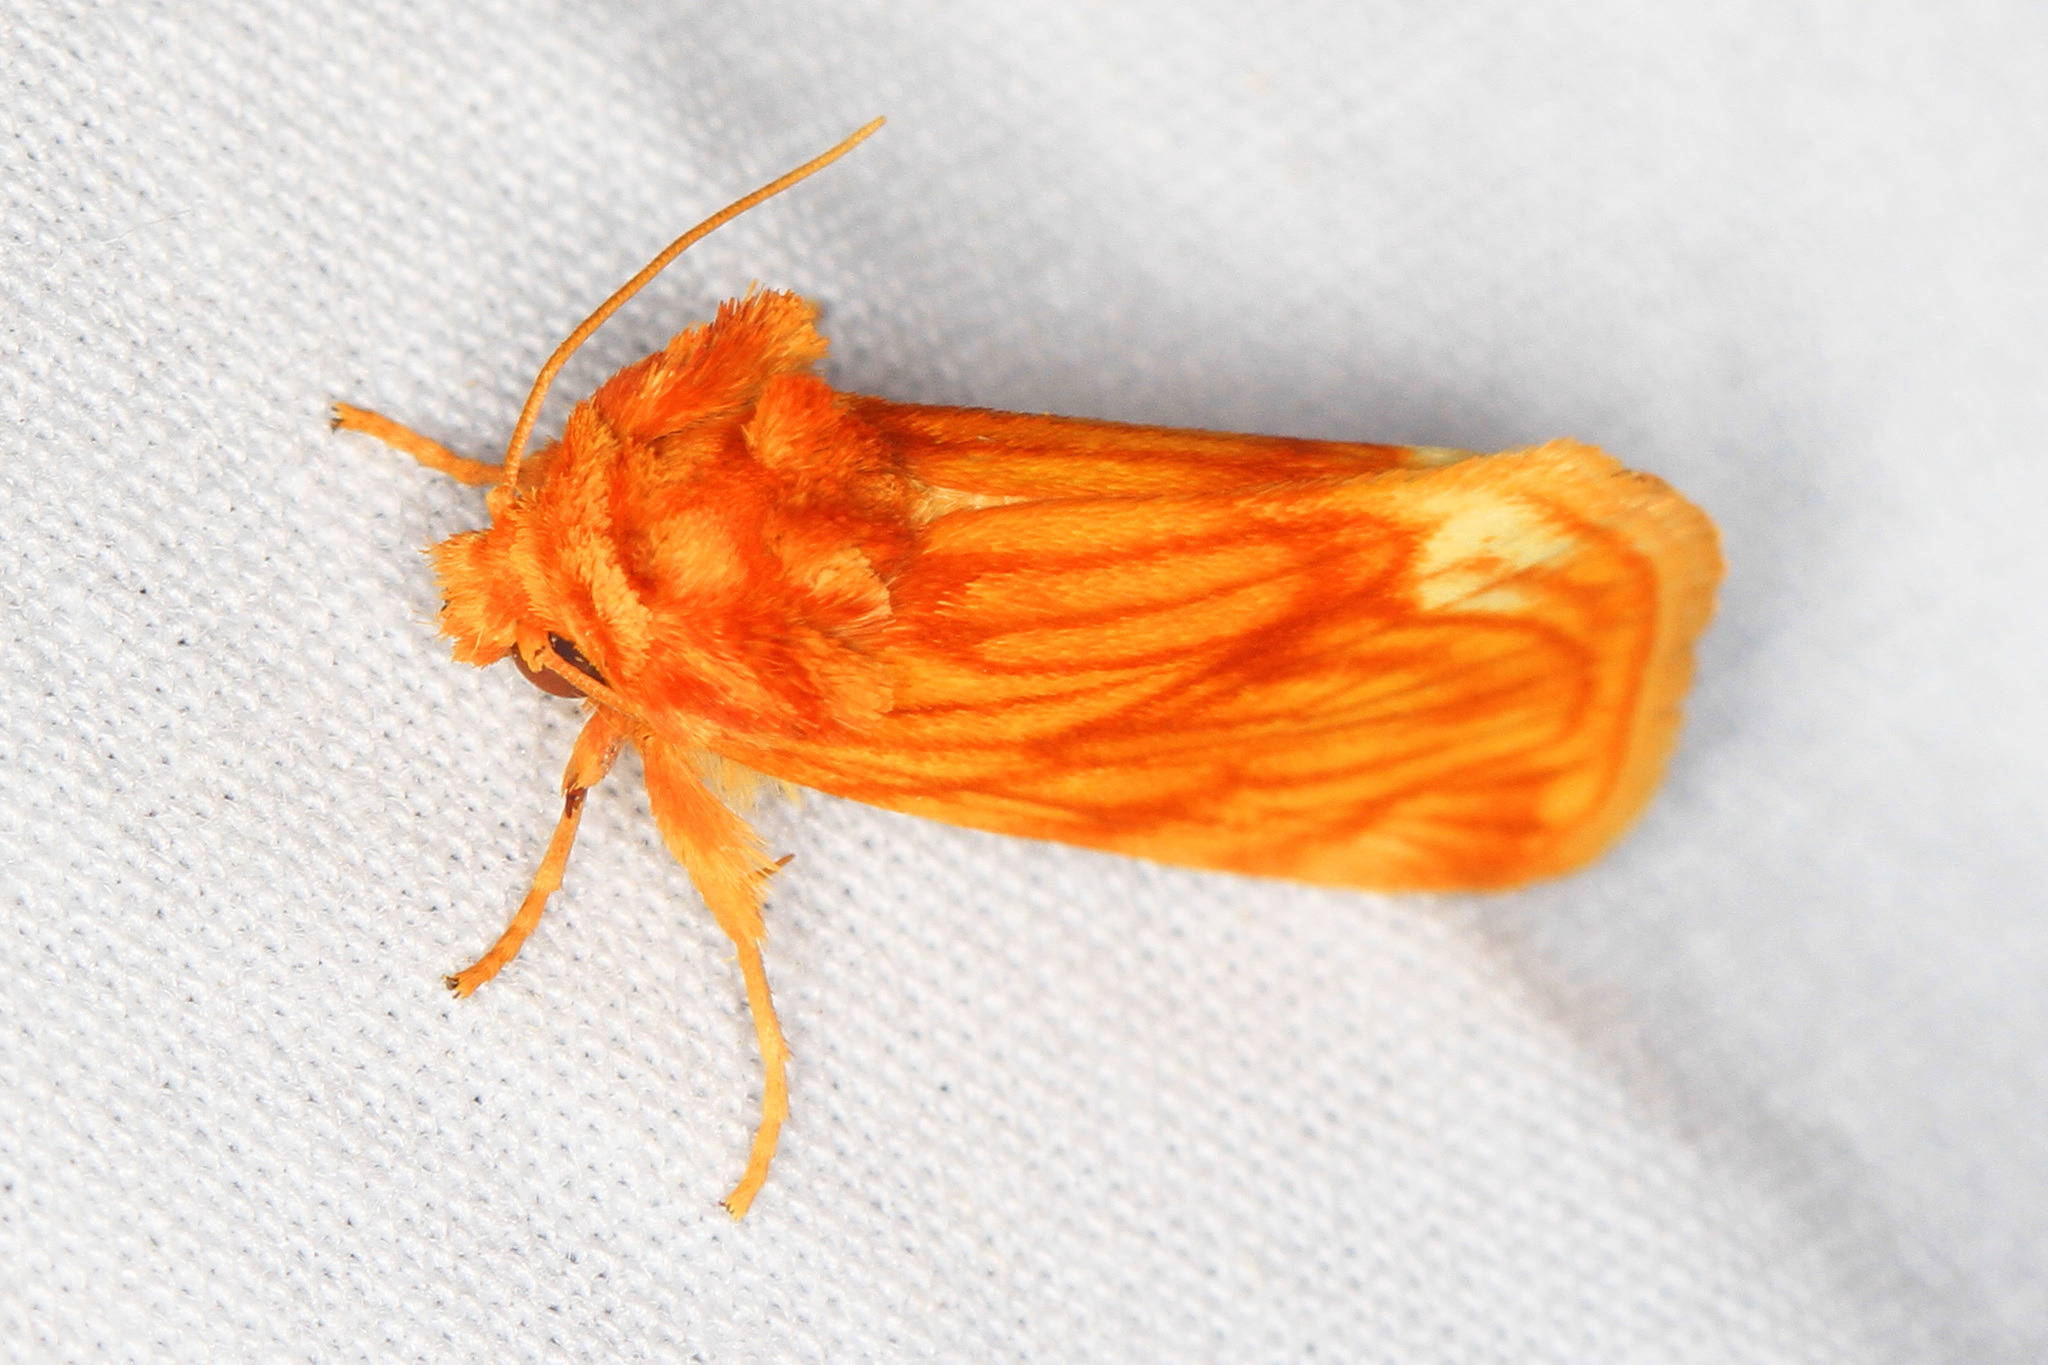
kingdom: Animalia
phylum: Arthropoda
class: Insecta
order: Lepidoptera
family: Noctuidae
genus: Cirrhophanus
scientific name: Cirrhophanus pretiosa
